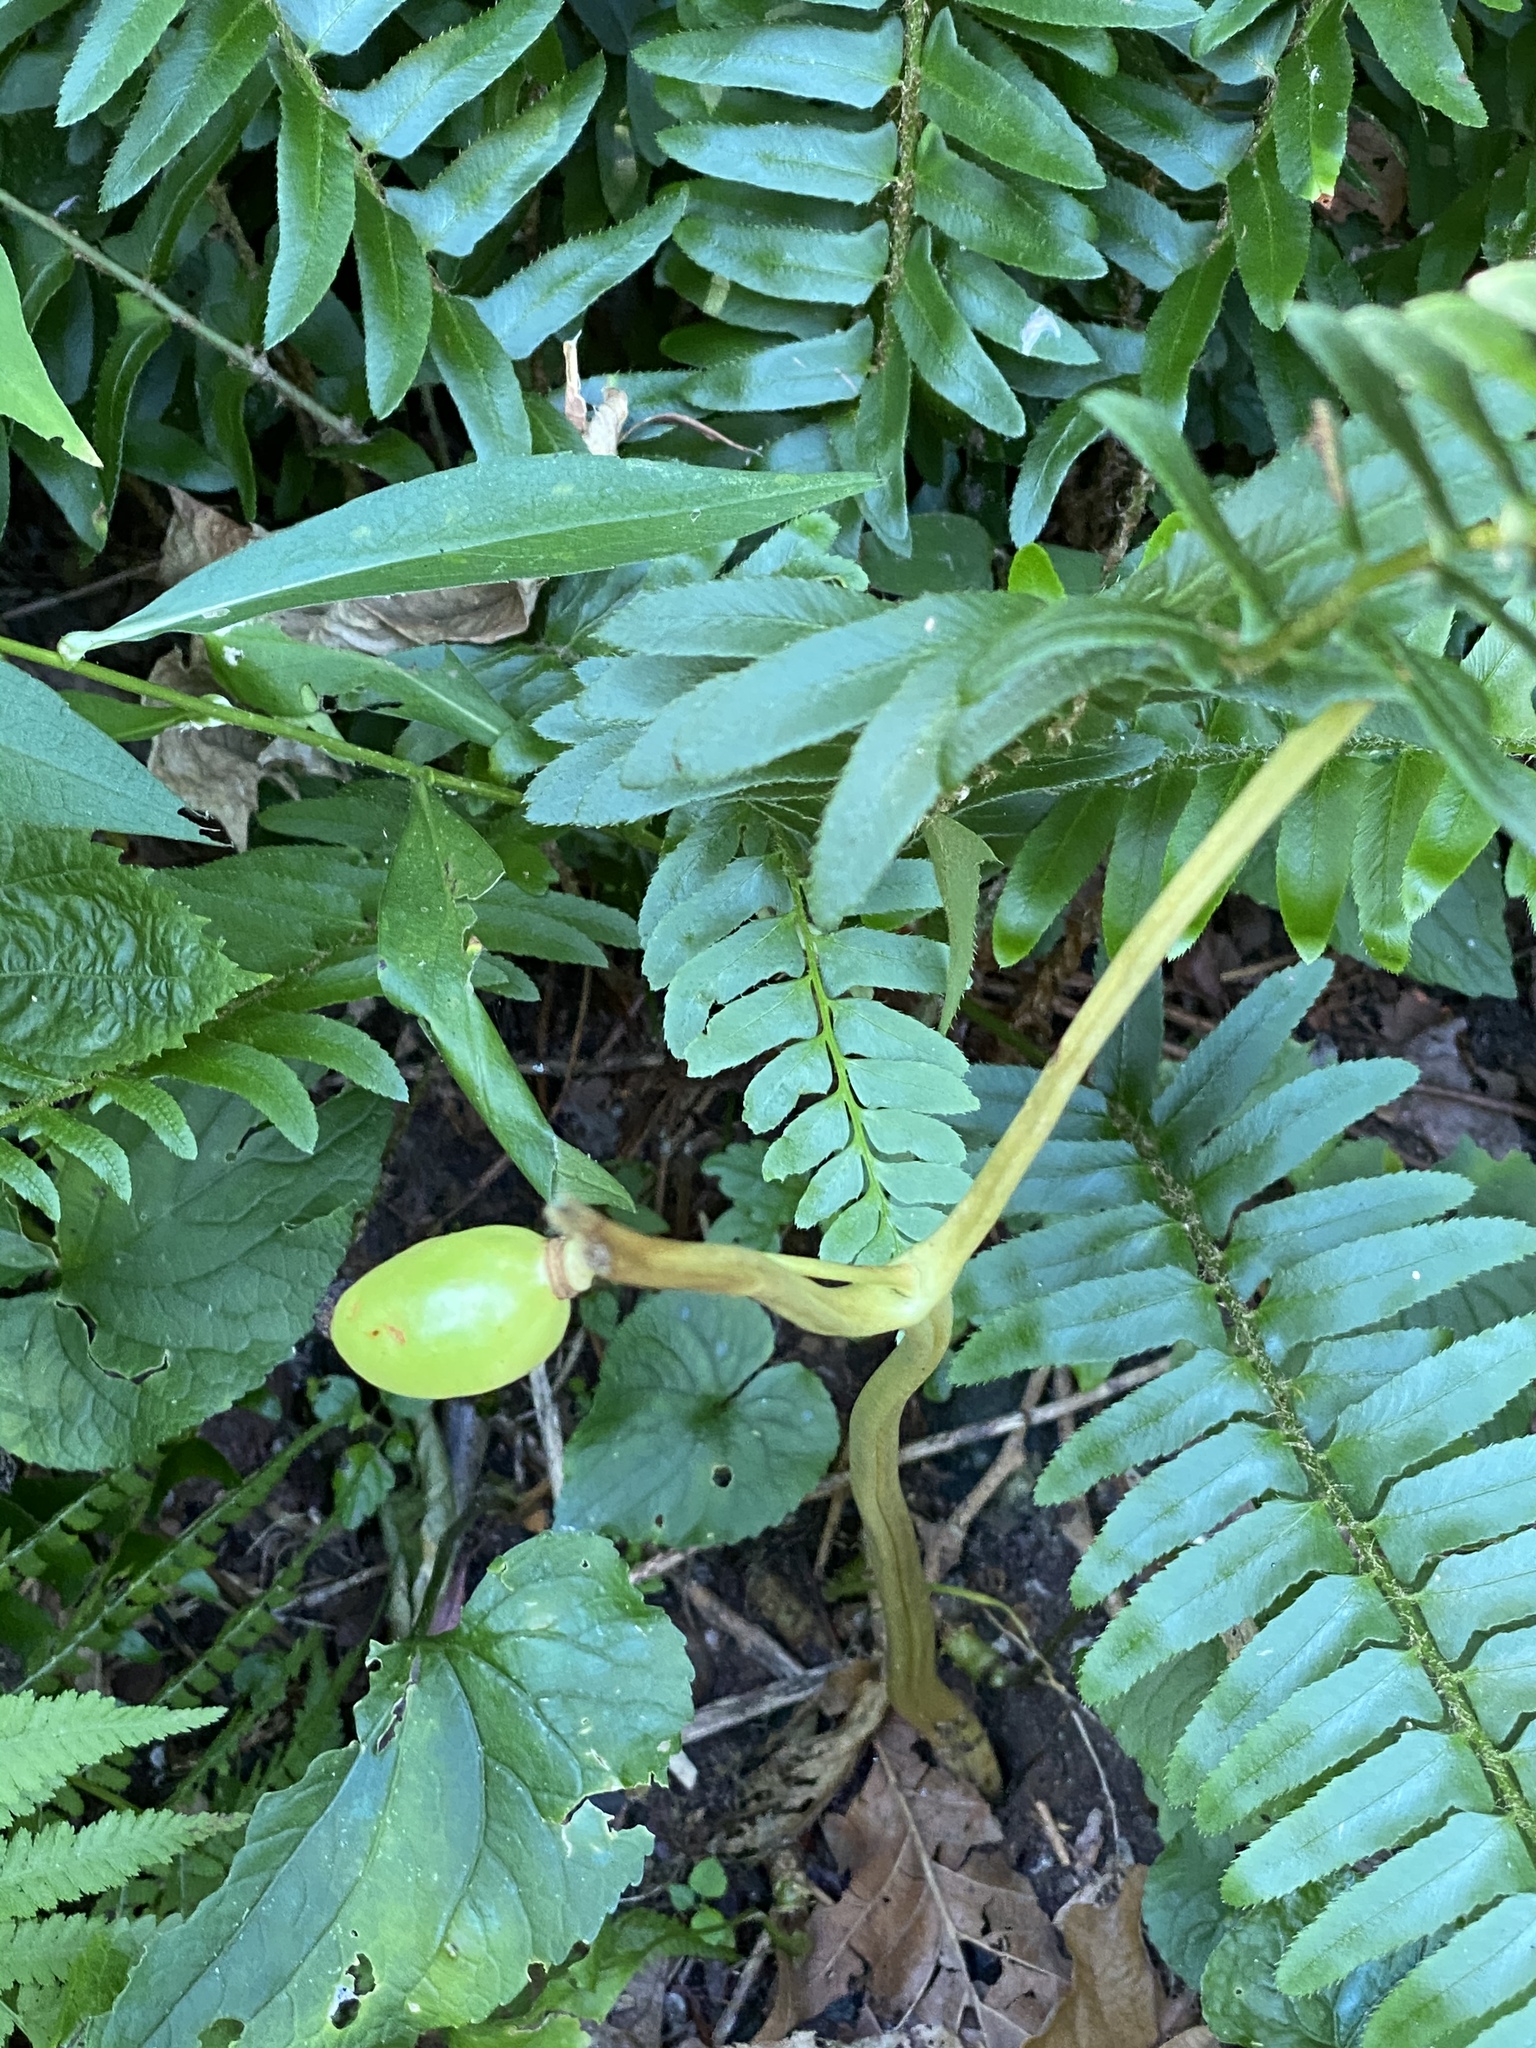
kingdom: Plantae
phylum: Tracheophyta
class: Magnoliopsida
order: Ranunculales
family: Berberidaceae
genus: Podophyllum
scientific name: Podophyllum peltatum
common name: Wild mandrake
